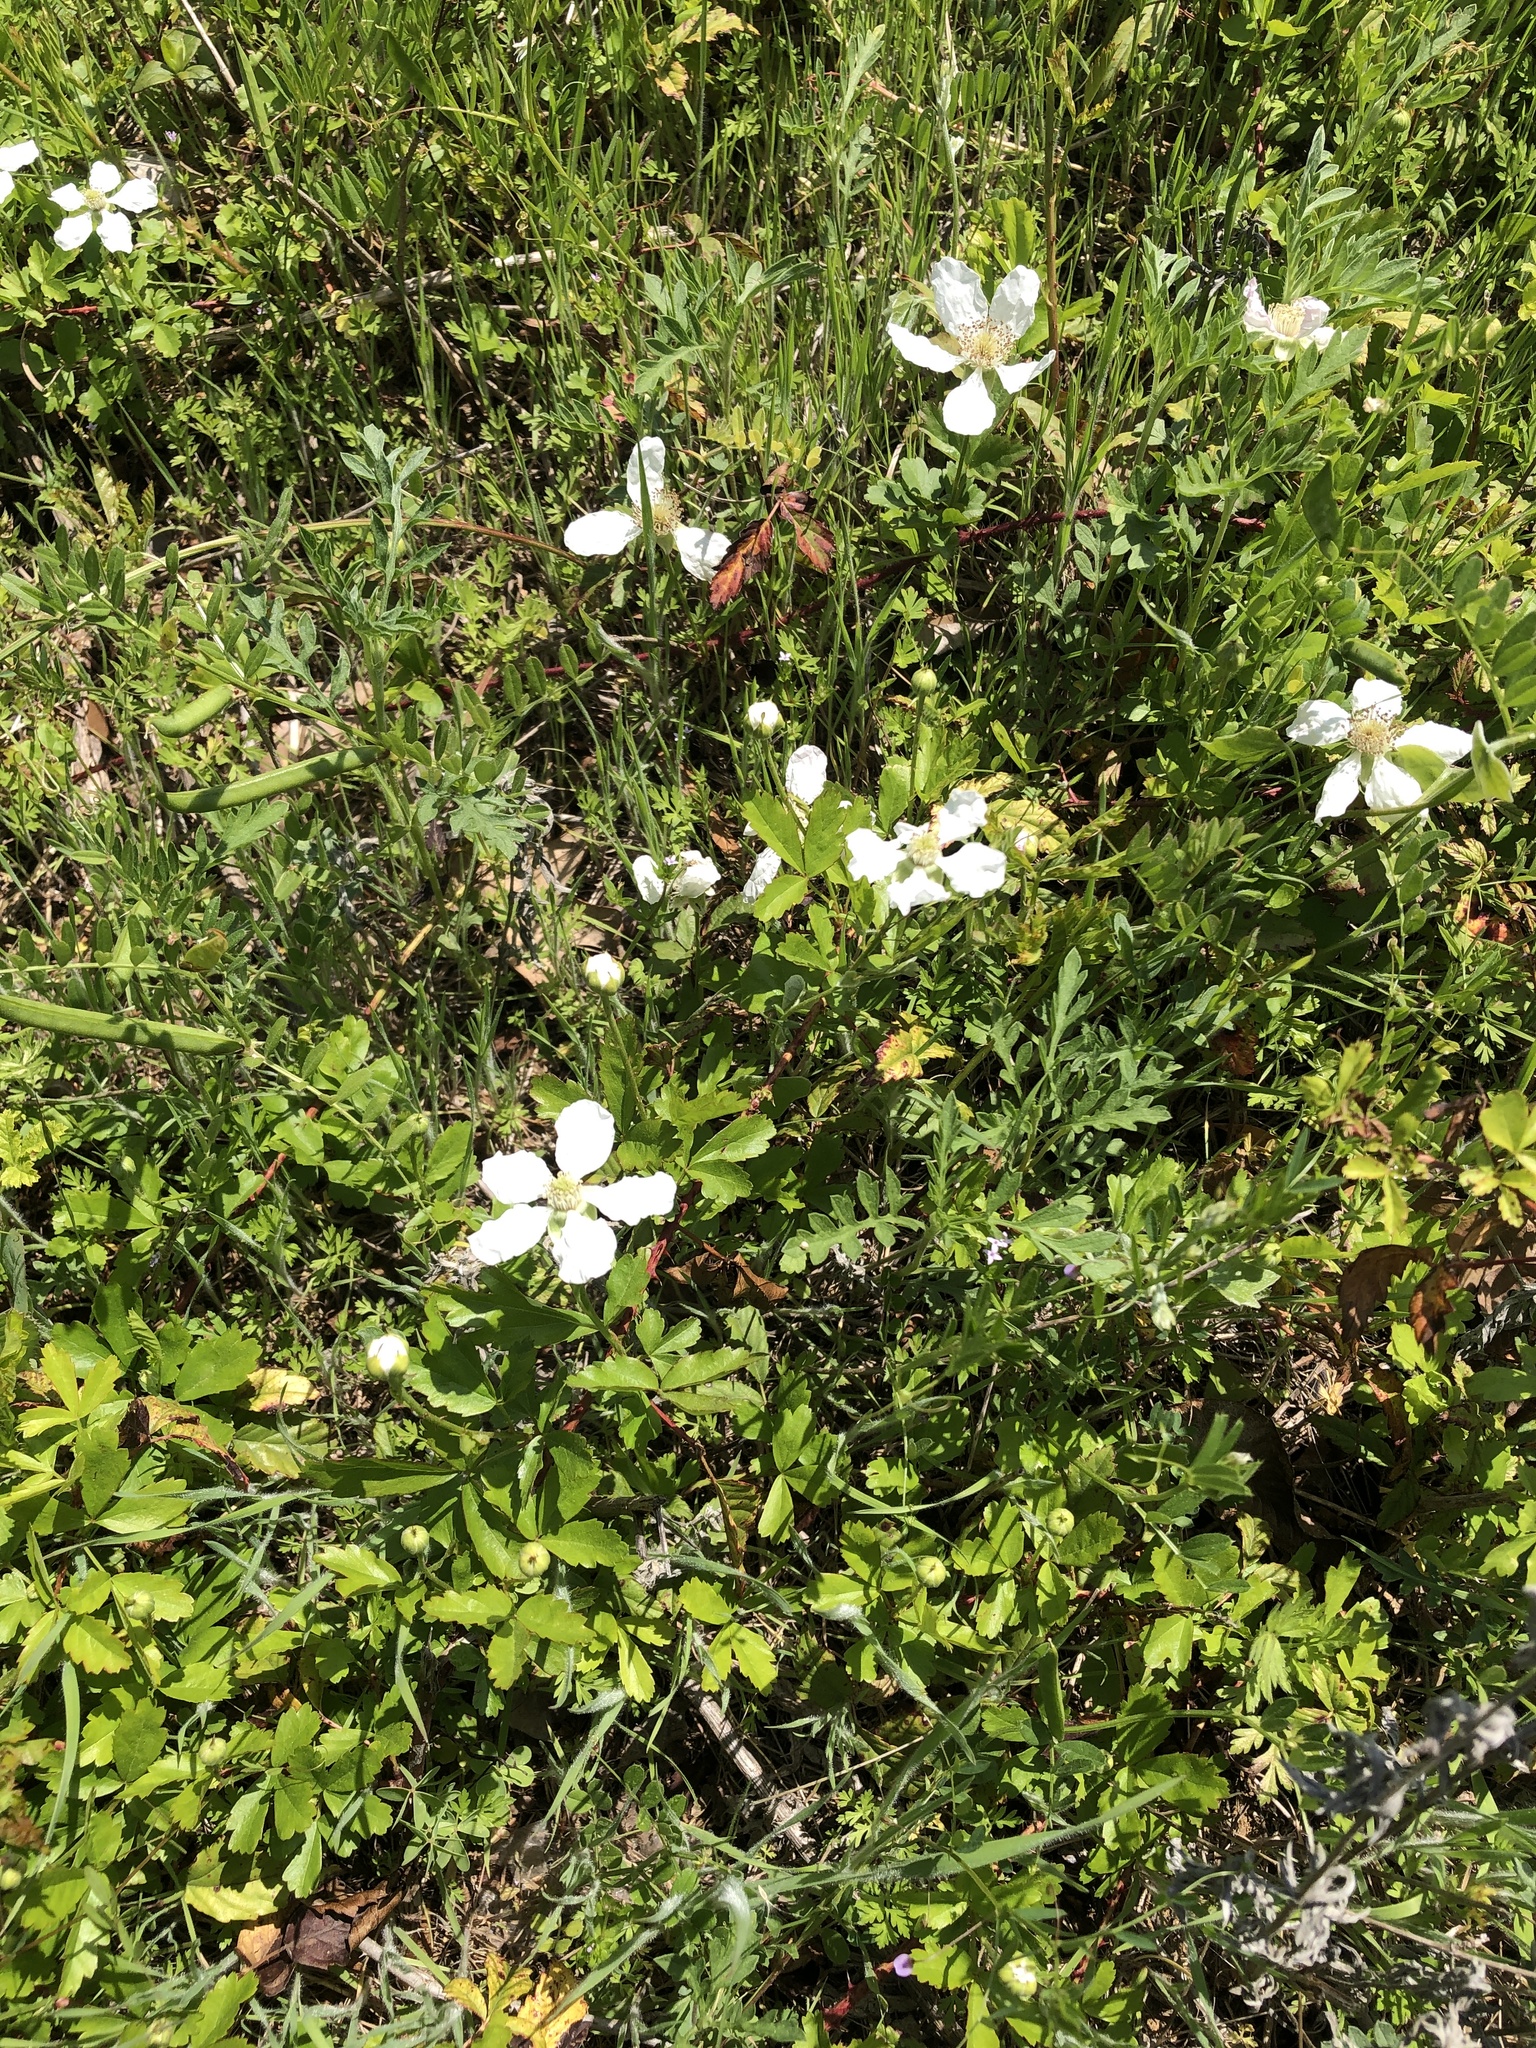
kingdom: Plantae
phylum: Tracheophyta
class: Magnoliopsida
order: Rosales
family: Rosaceae
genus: Rubus
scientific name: Rubus trivialis
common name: Southern dewberry
